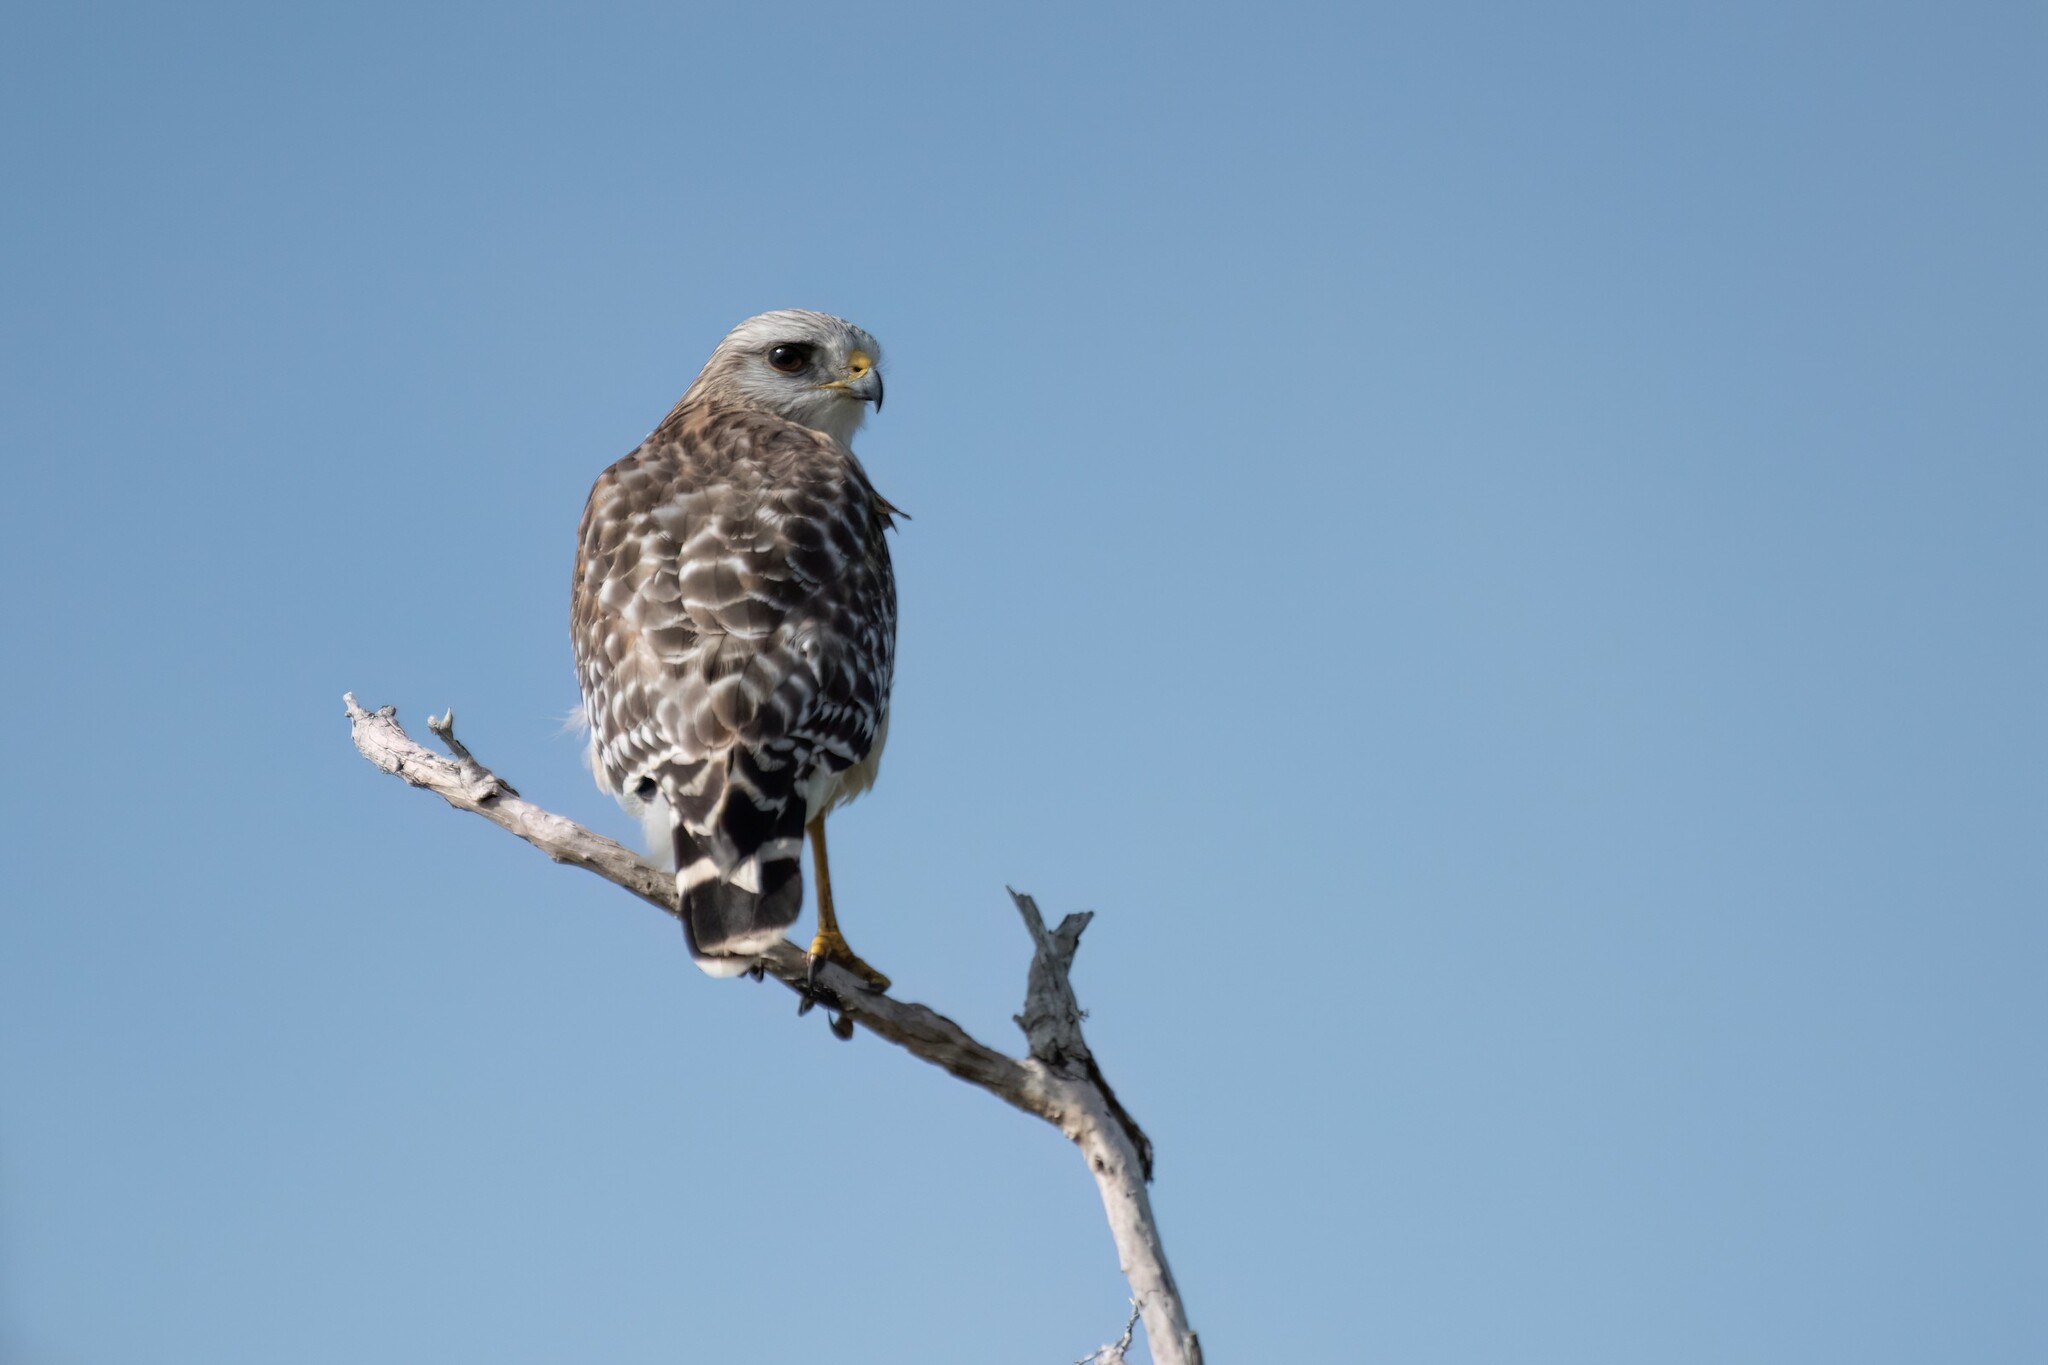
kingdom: Animalia
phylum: Chordata
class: Aves
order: Accipitriformes
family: Accipitridae
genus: Buteo
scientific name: Buteo lineatus
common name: Red-shouldered hawk
